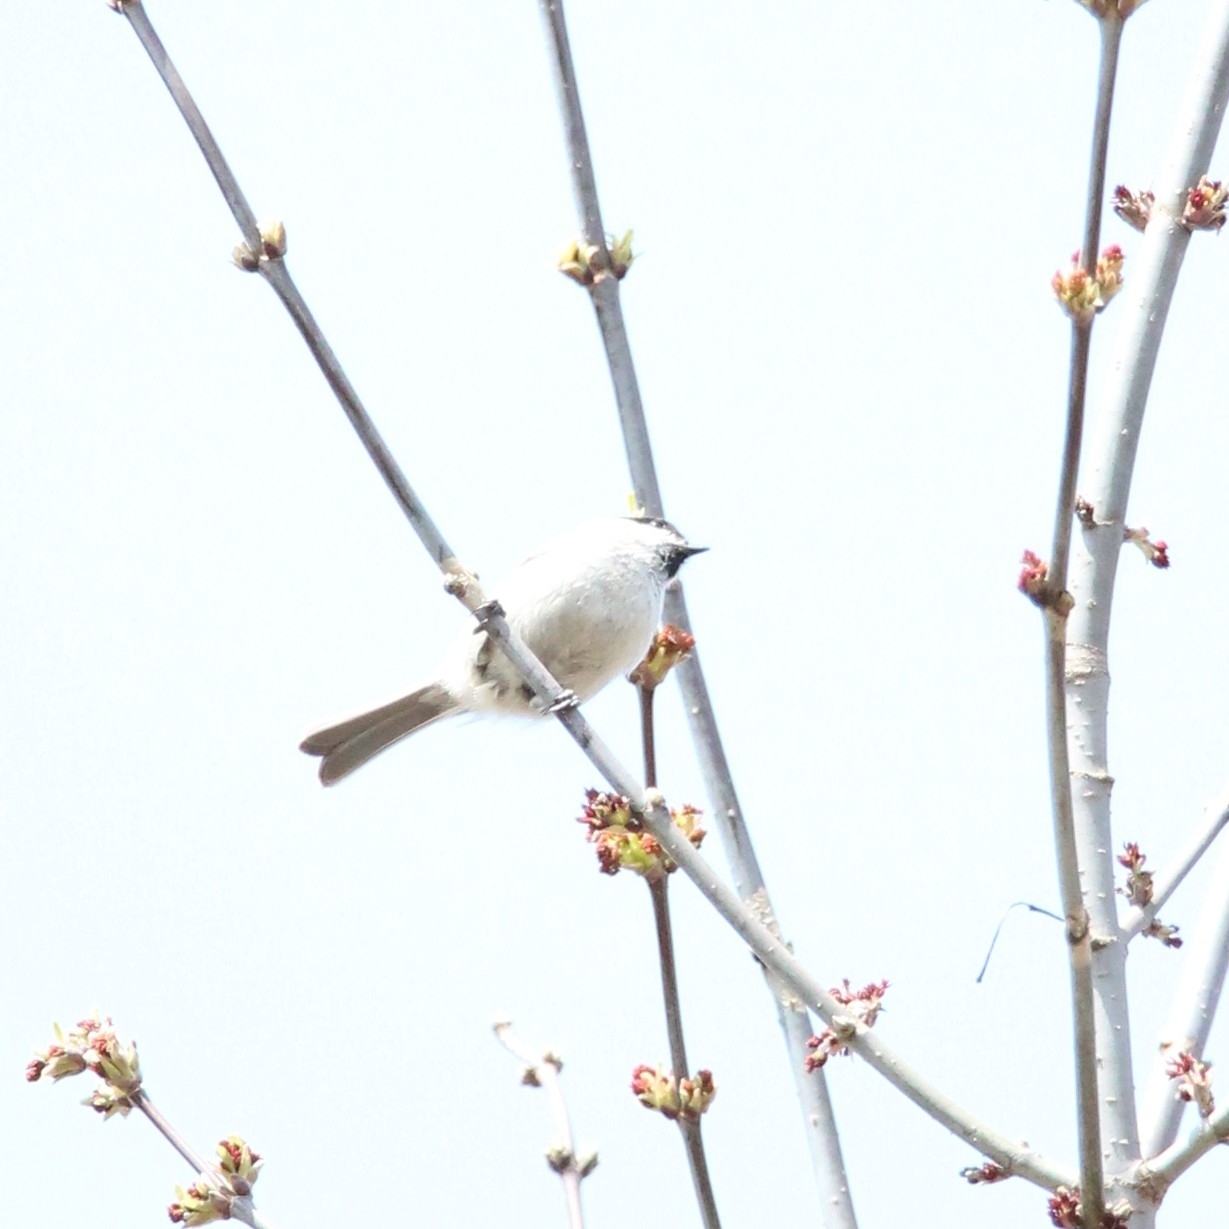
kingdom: Animalia
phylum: Chordata
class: Aves
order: Passeriformes
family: Paridae
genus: Poecile
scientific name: Poecile palustris
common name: Marsh tit
